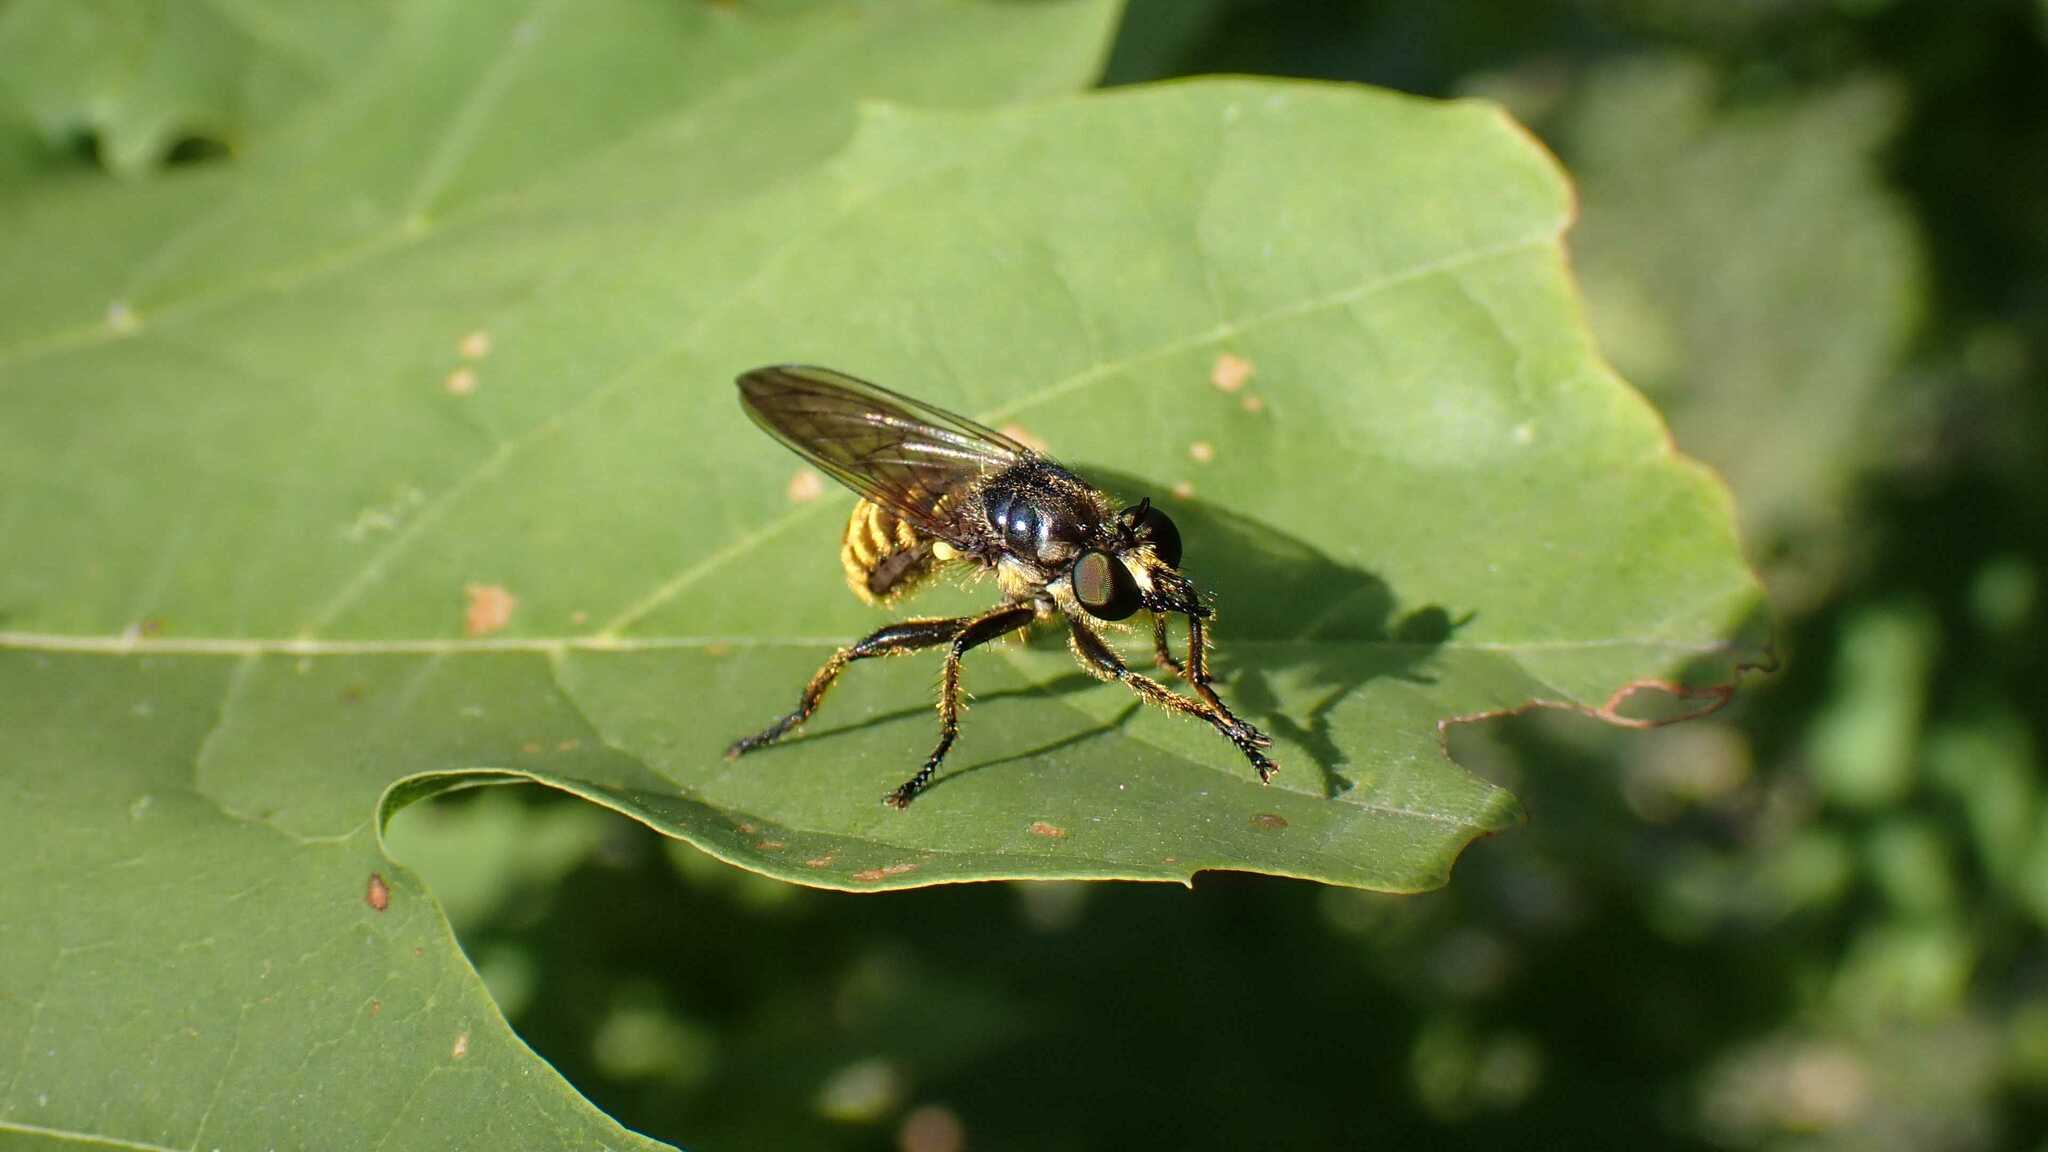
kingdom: Animalia
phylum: Arthropoda
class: Insecta
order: Diptera
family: Asilidae
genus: Lamyra
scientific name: Lamyra fimbriata
